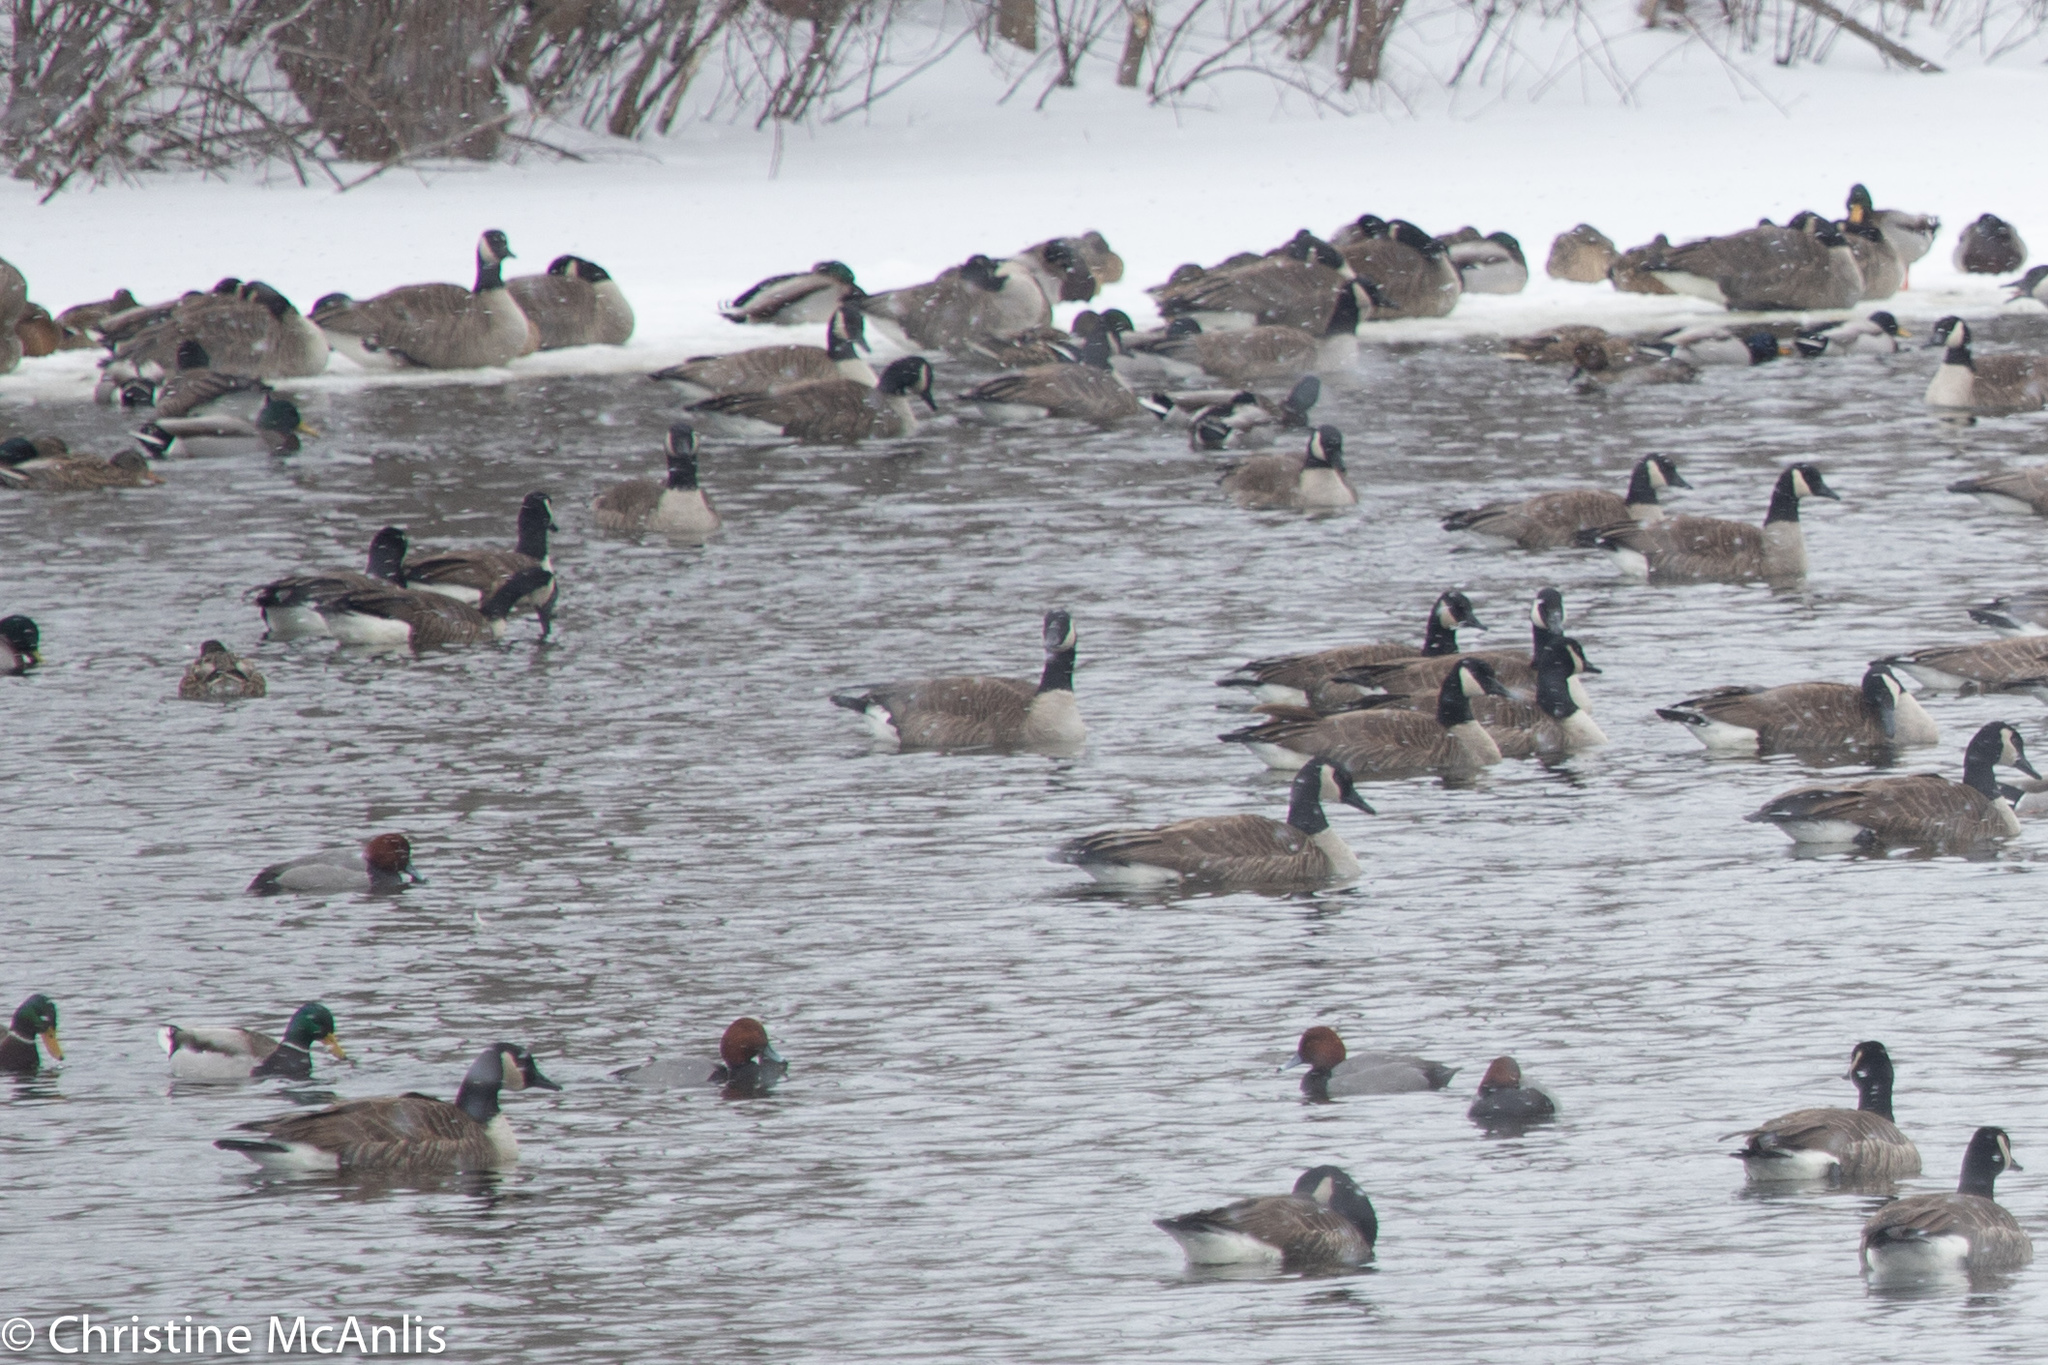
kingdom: Animalia
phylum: Chordata
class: Aves
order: Anseriformes
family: Anatidae
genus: Aythya
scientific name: Aythya americana
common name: Redhead
